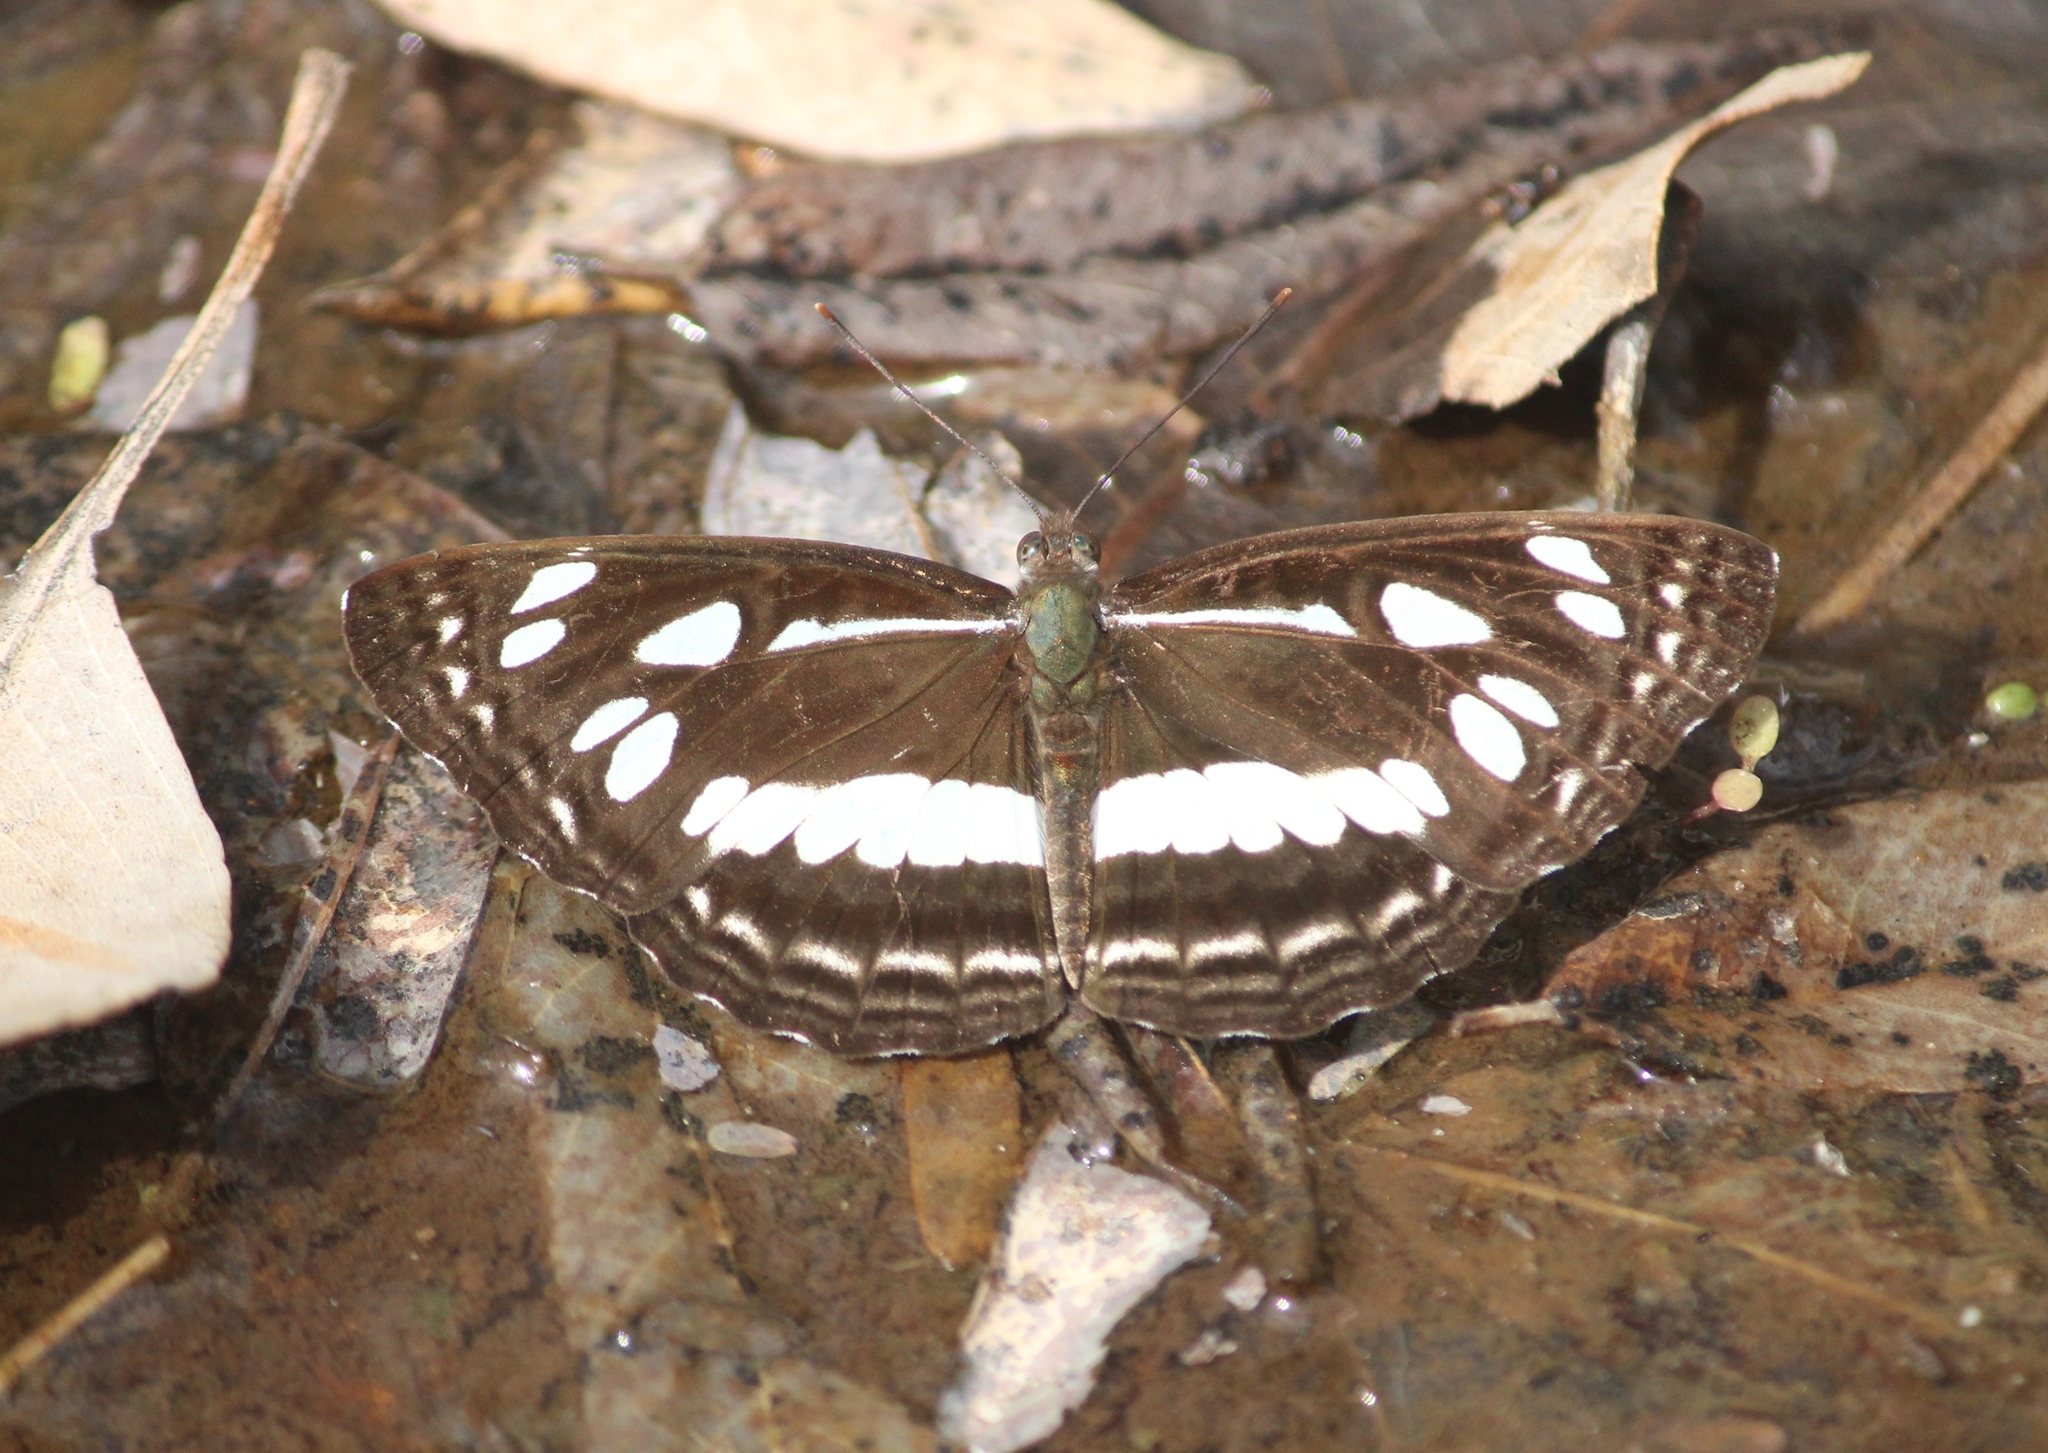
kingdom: Animalia
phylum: Arthropoda
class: Insecta
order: Lepidoptera
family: Nymphalidae
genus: Neptis
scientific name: Neptis jumbah
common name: Chestnut-streaked sailer
